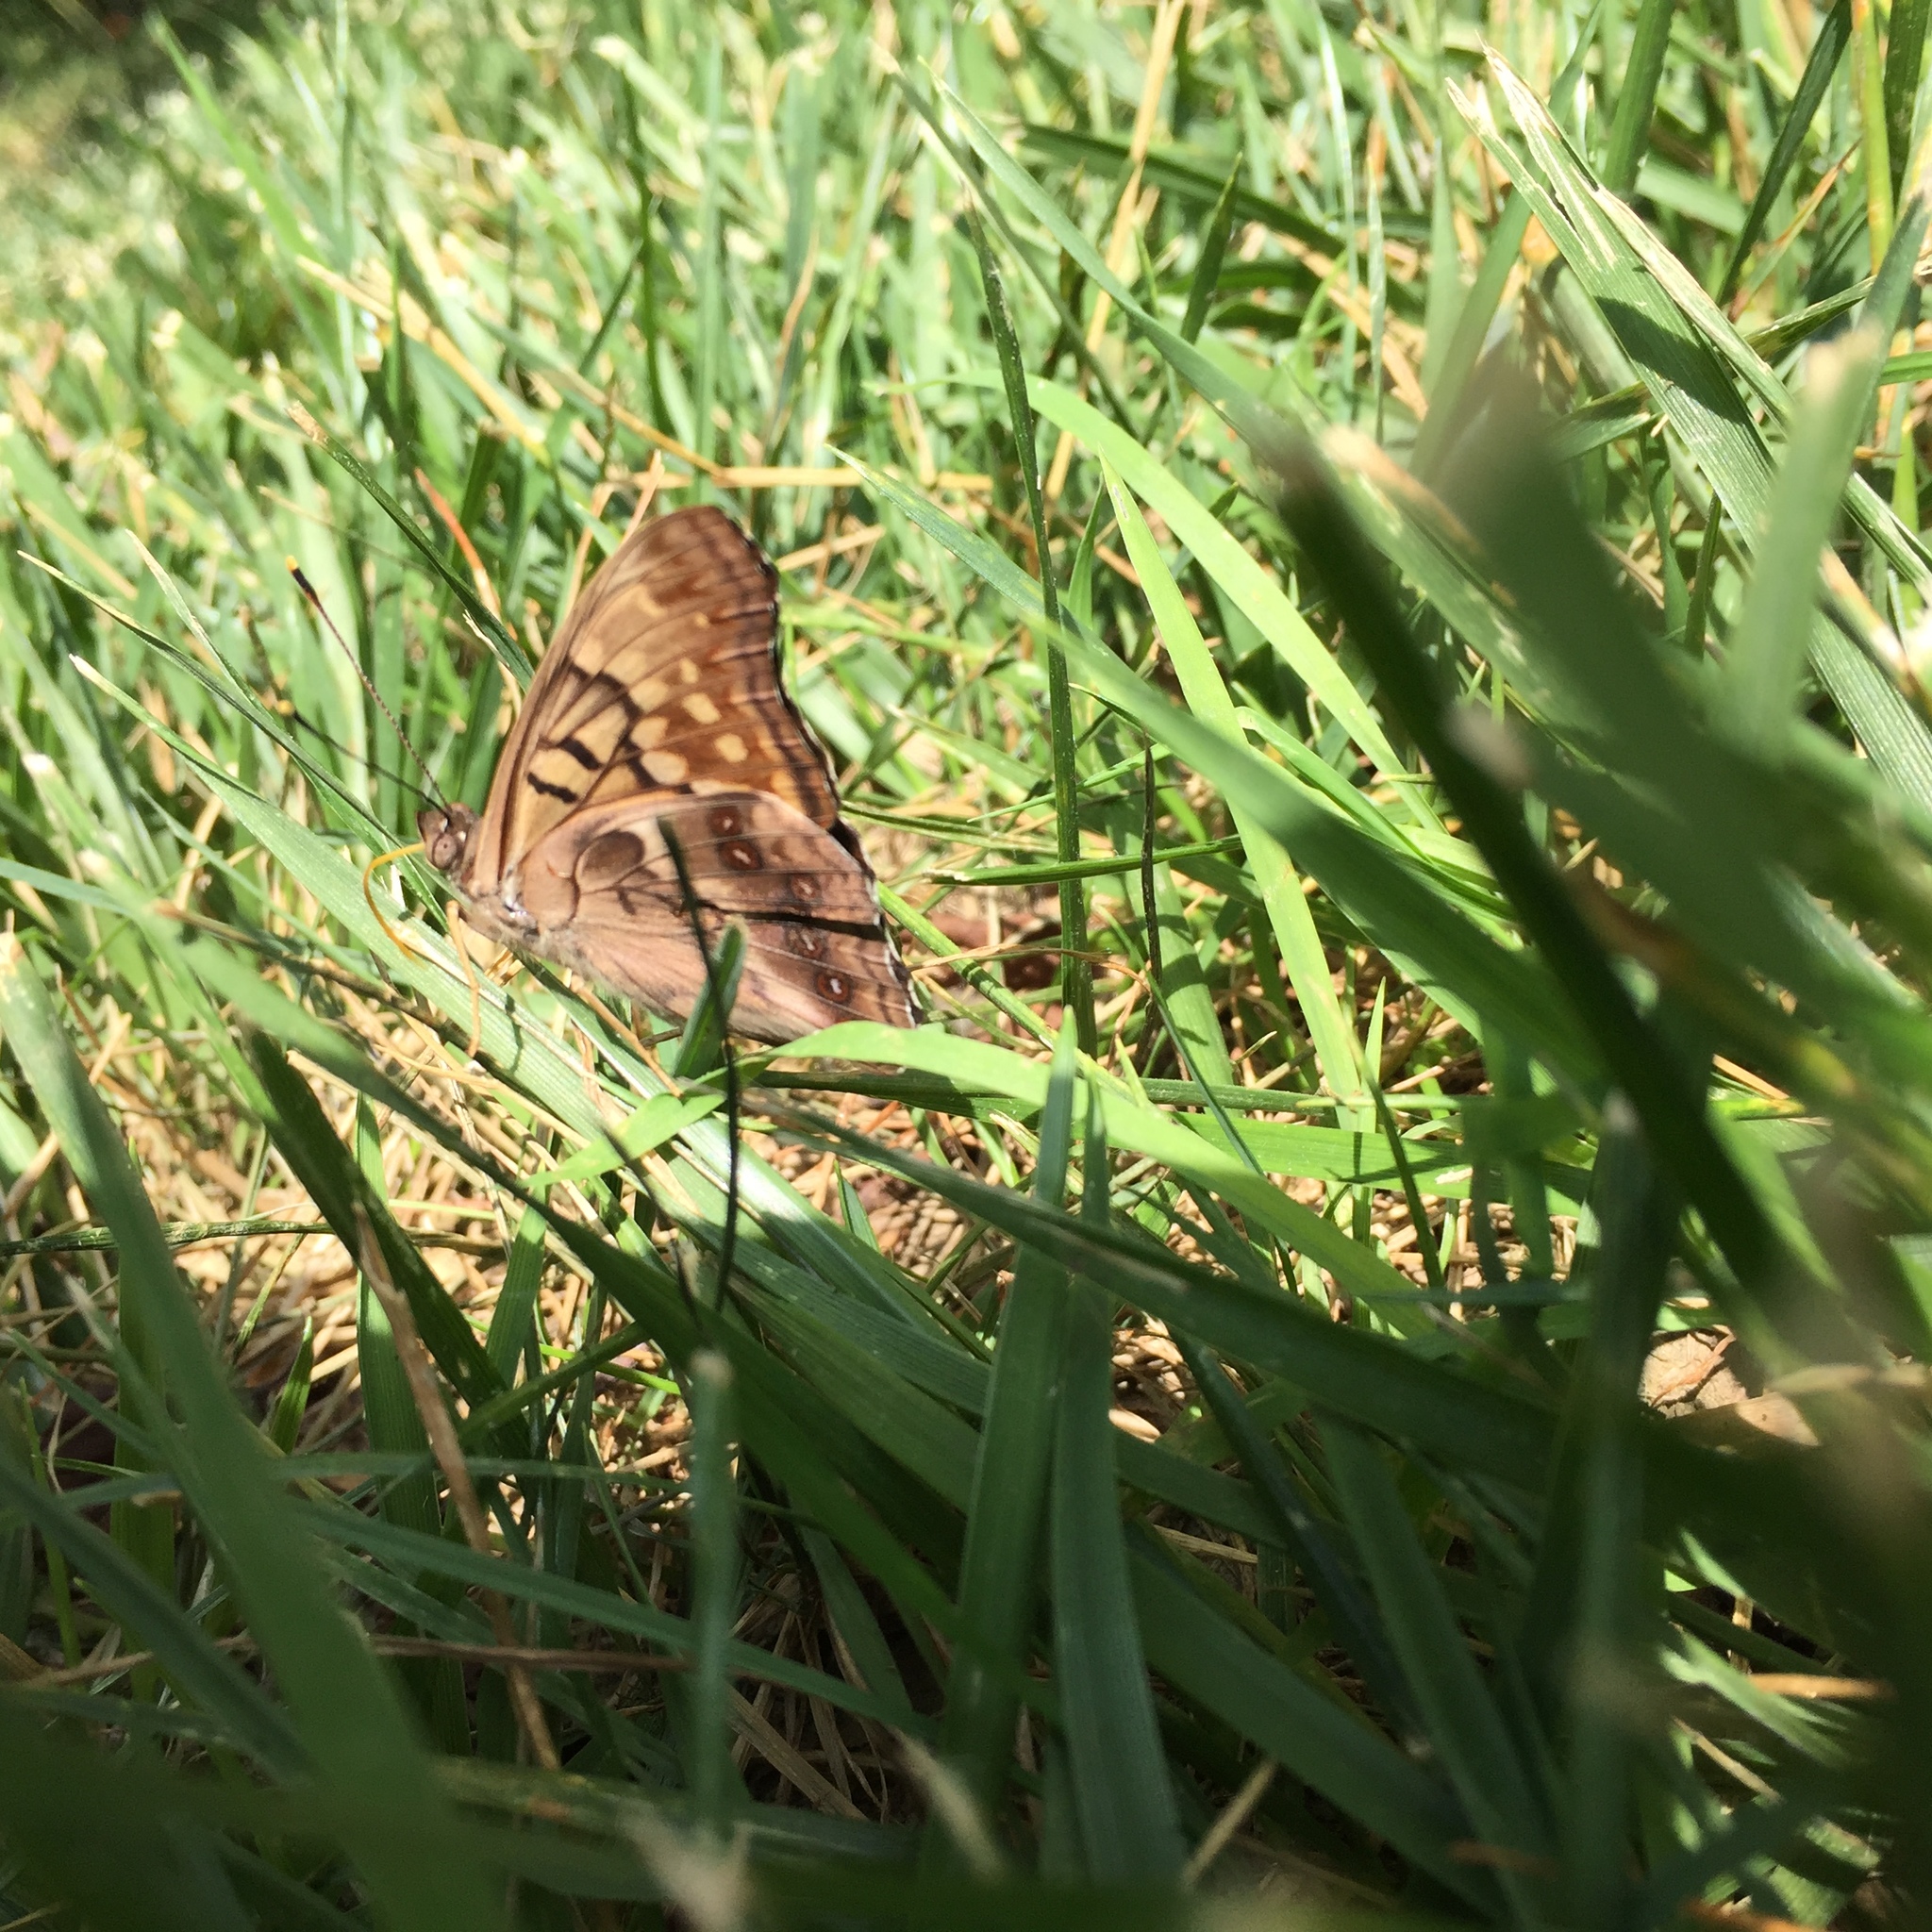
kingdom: Animalia
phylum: Arthropoda
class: Insecta
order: Lepidoptera
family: Nymphalidae
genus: Asterocampa
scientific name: Asterocampa clyton
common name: Tawny emperor
